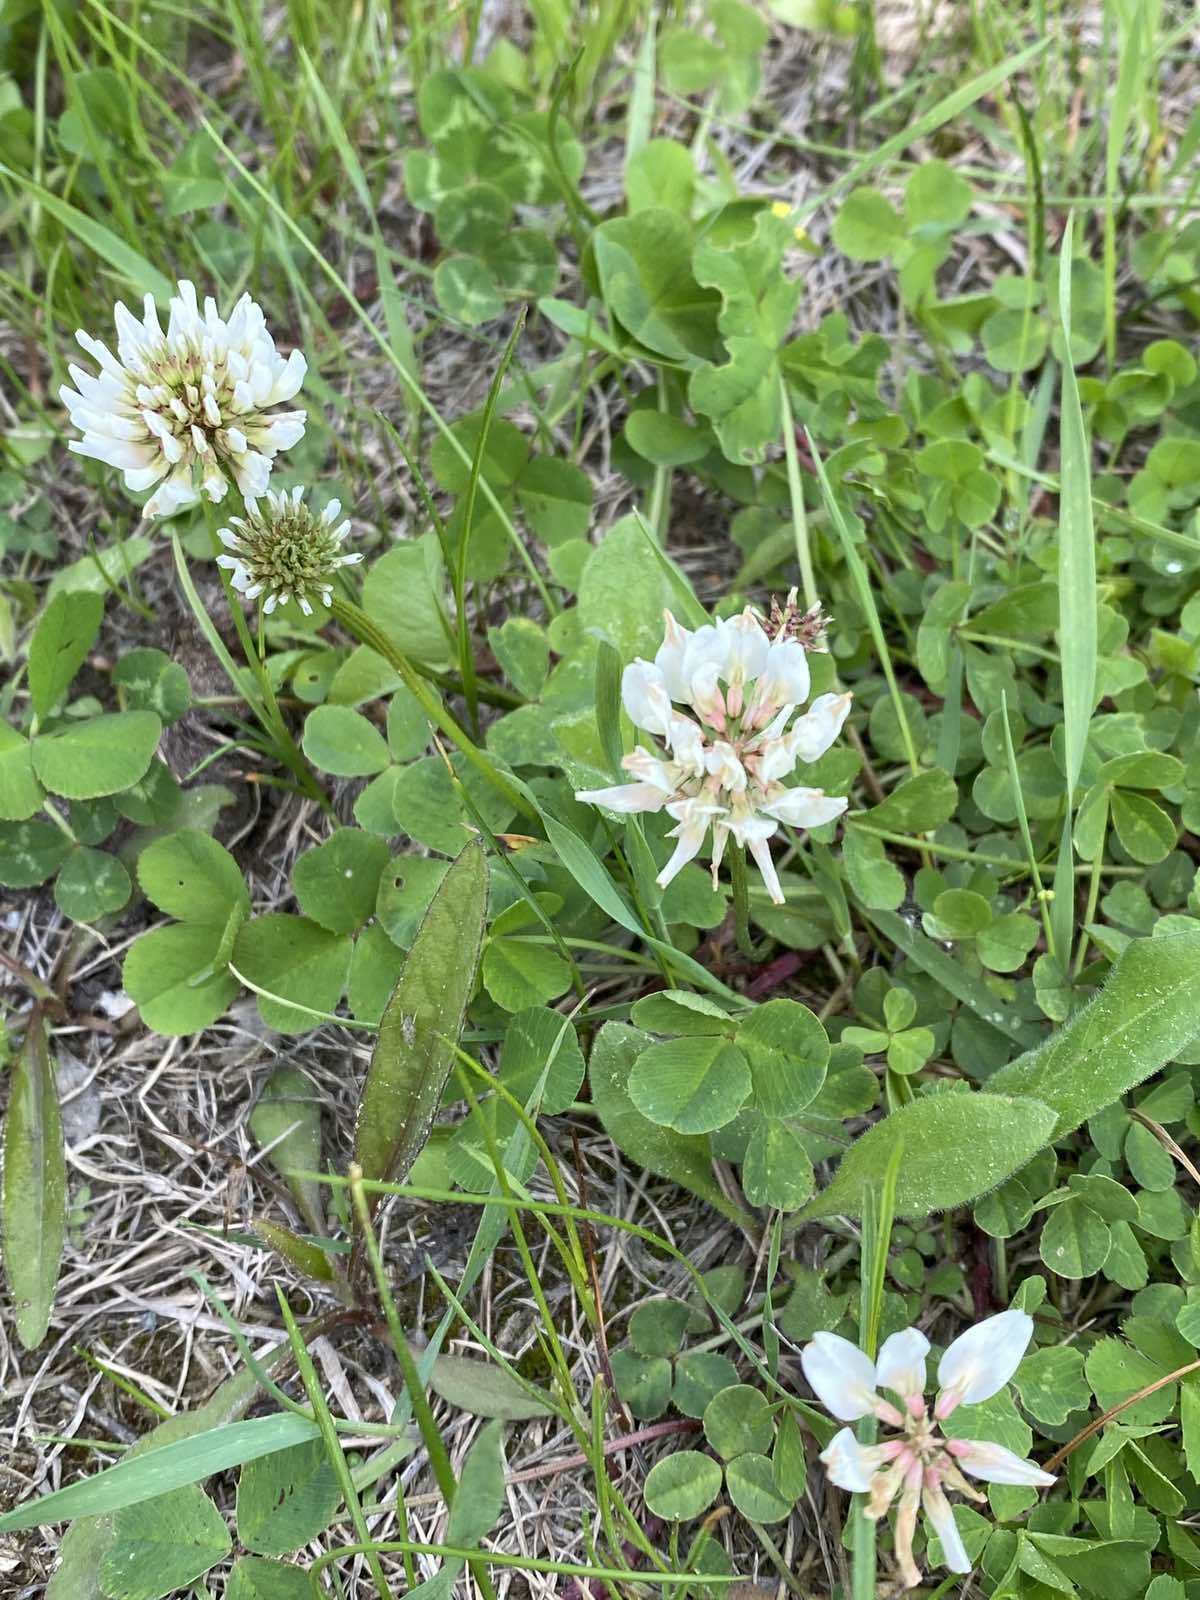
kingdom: Plantae
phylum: Tracheophyta
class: Magnoliopsida
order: Fabales
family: Fabaceae
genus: Trifolium
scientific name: Trifolium repens
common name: White clover
